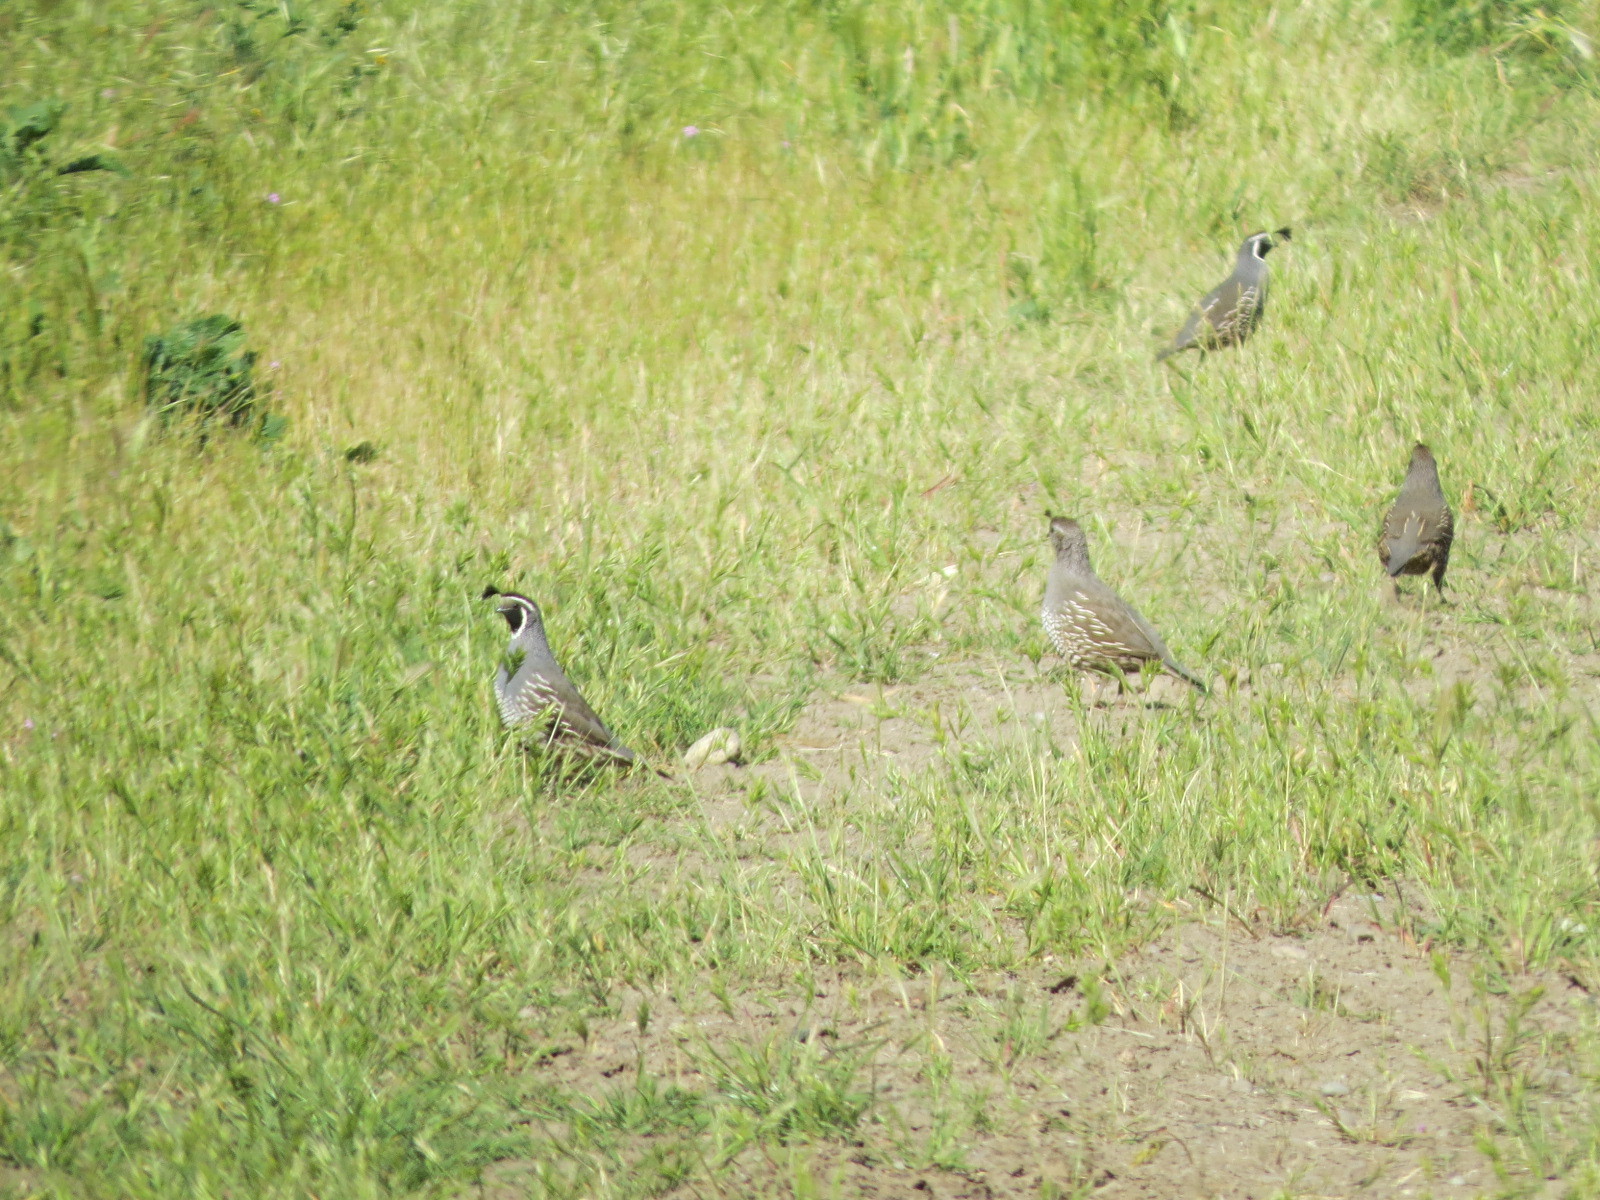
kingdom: Animalia
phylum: Chordata
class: Aves
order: Galliformes
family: Odontophoridae
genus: Callipepla
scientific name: Callipepla californica
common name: California quail
